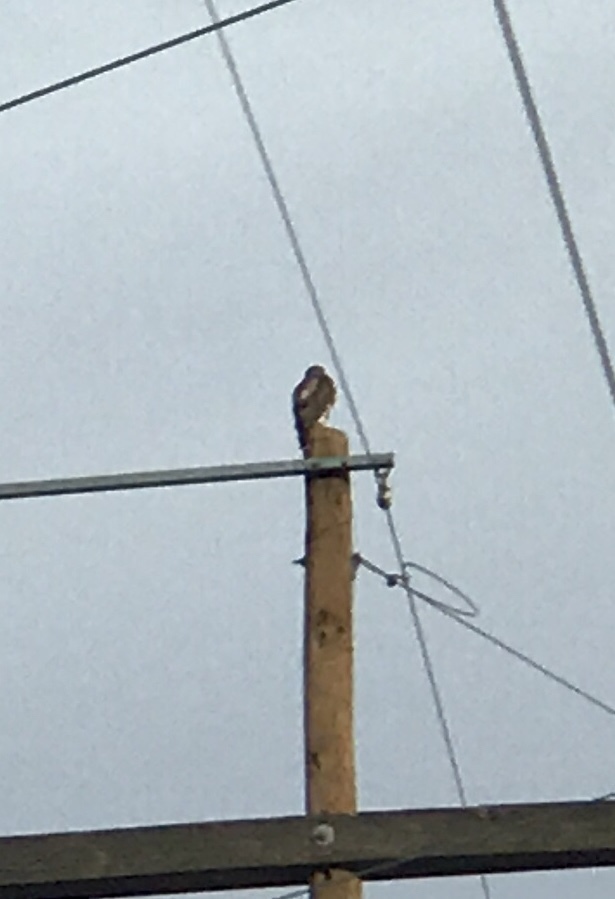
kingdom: Animalia
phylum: Chordata
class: Aves
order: Accipitriformes
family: Accipitridae
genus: Buteo
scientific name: Buteo jamaicensis
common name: Red-tailed hawk
